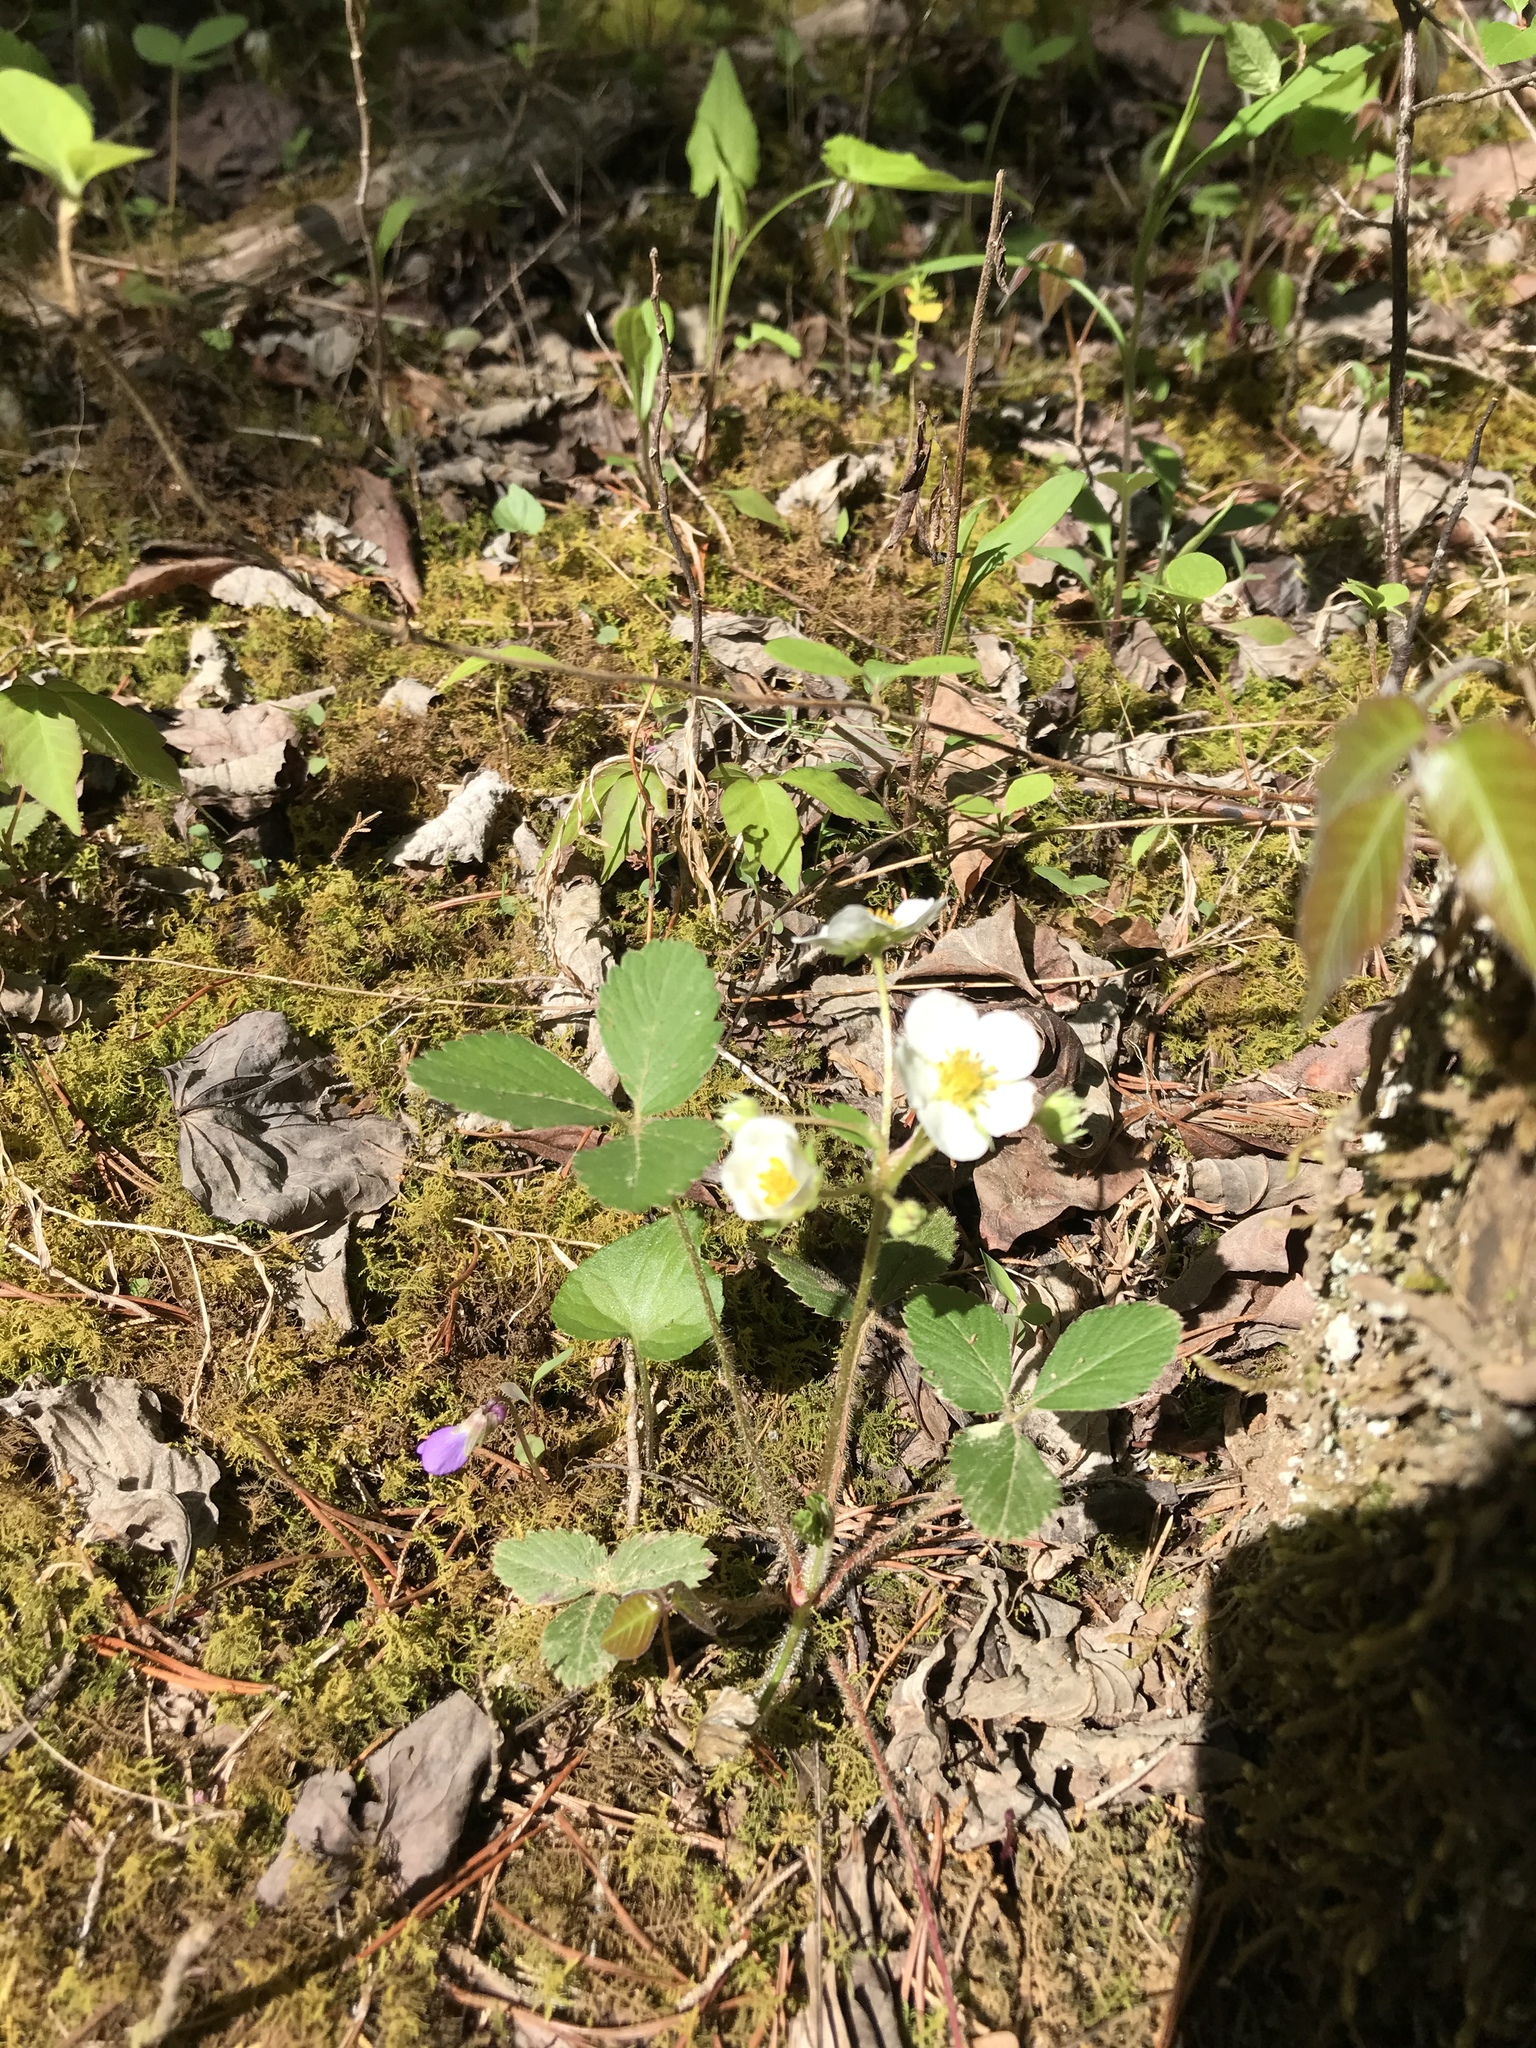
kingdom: Plantae
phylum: Tracheophyta
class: Magnoliopsida
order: Rosales
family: Rosaceae
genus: Fragaria
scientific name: Fragaria vesca
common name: Wild strawberry
